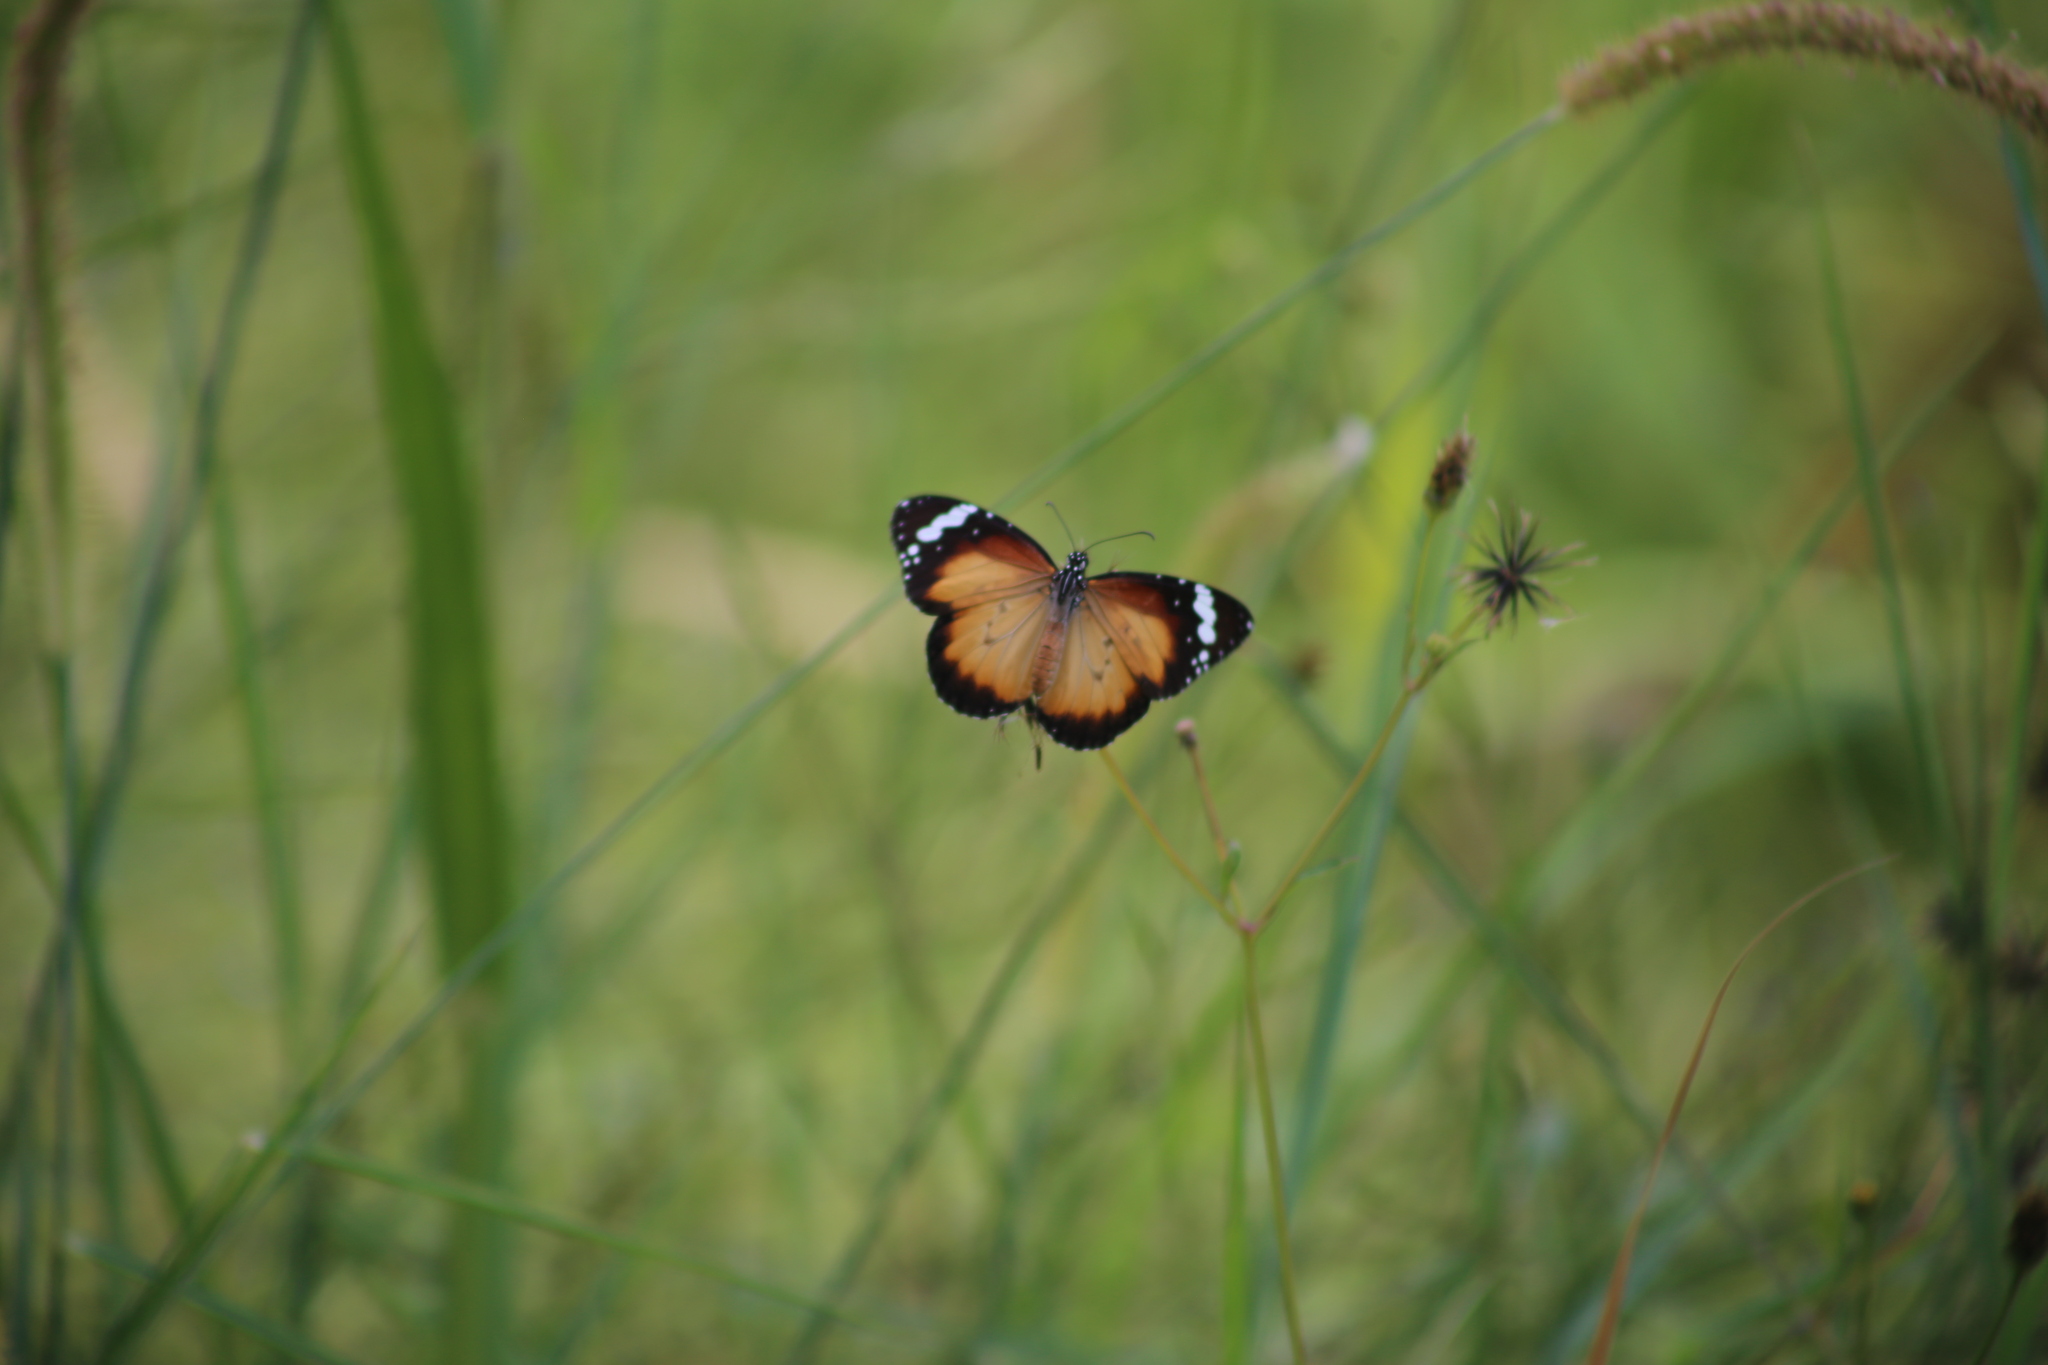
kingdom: Animalia
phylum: Arthropoda
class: Insecta
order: Lepidoptera
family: Nymphalidae
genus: Danaus
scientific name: Danaus chrysippus
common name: Plain tiger
